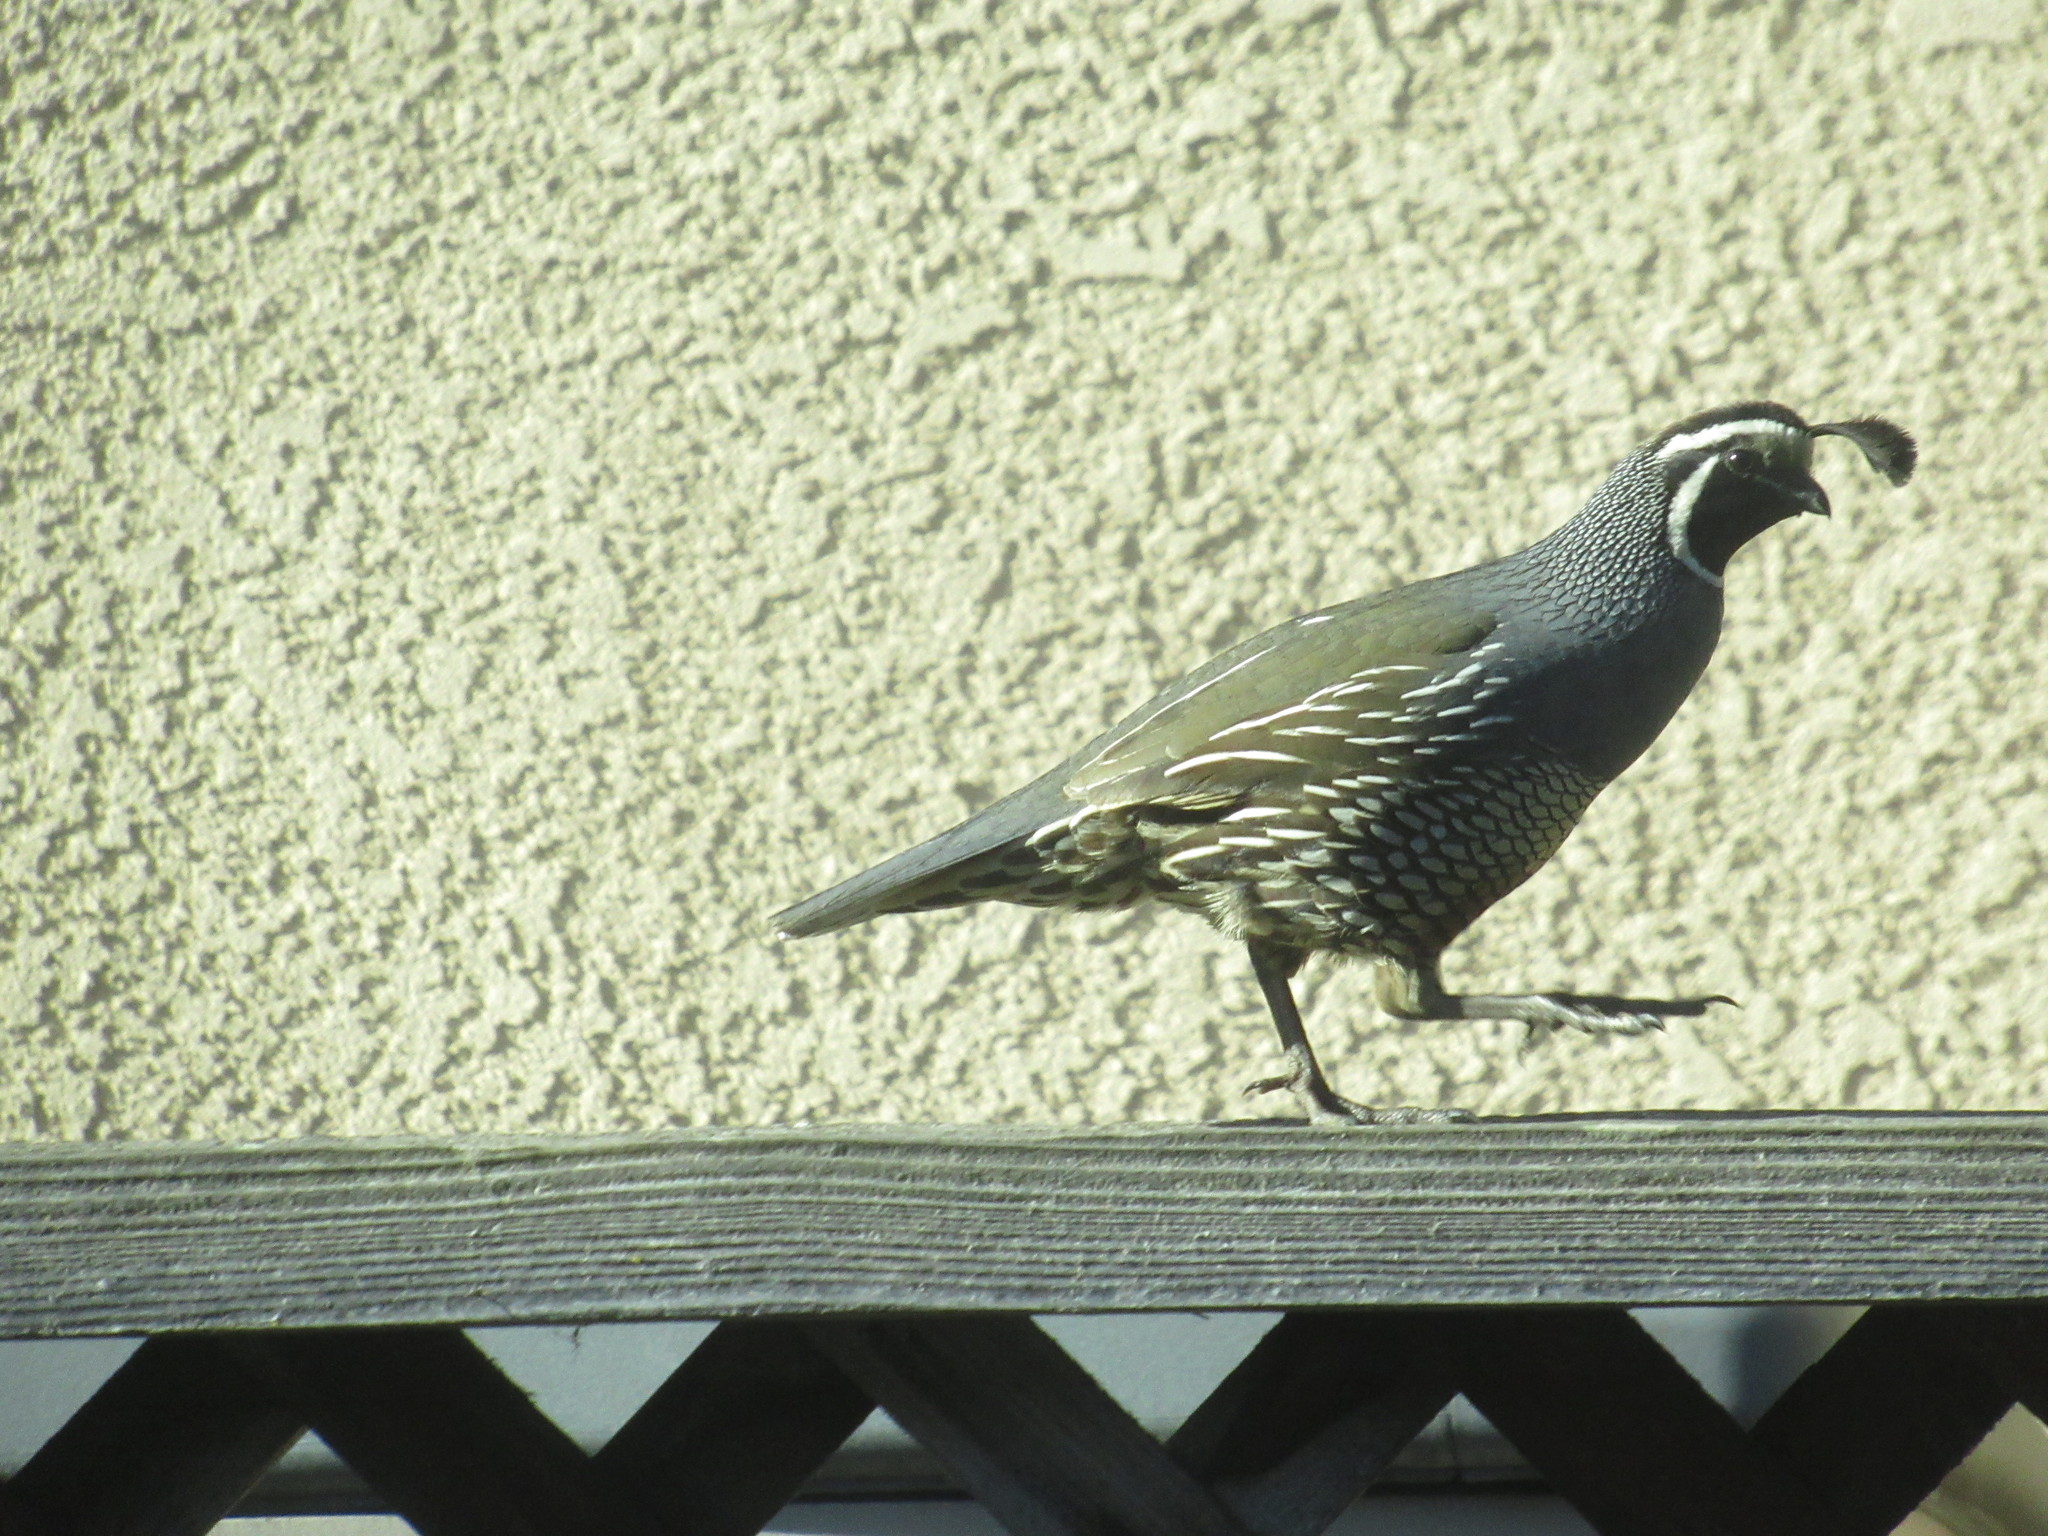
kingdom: Animalia
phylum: Chordata
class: Aves
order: Galliformes
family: Odontophoridae
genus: Callipepla
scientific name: Callipepla californica
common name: California quail
